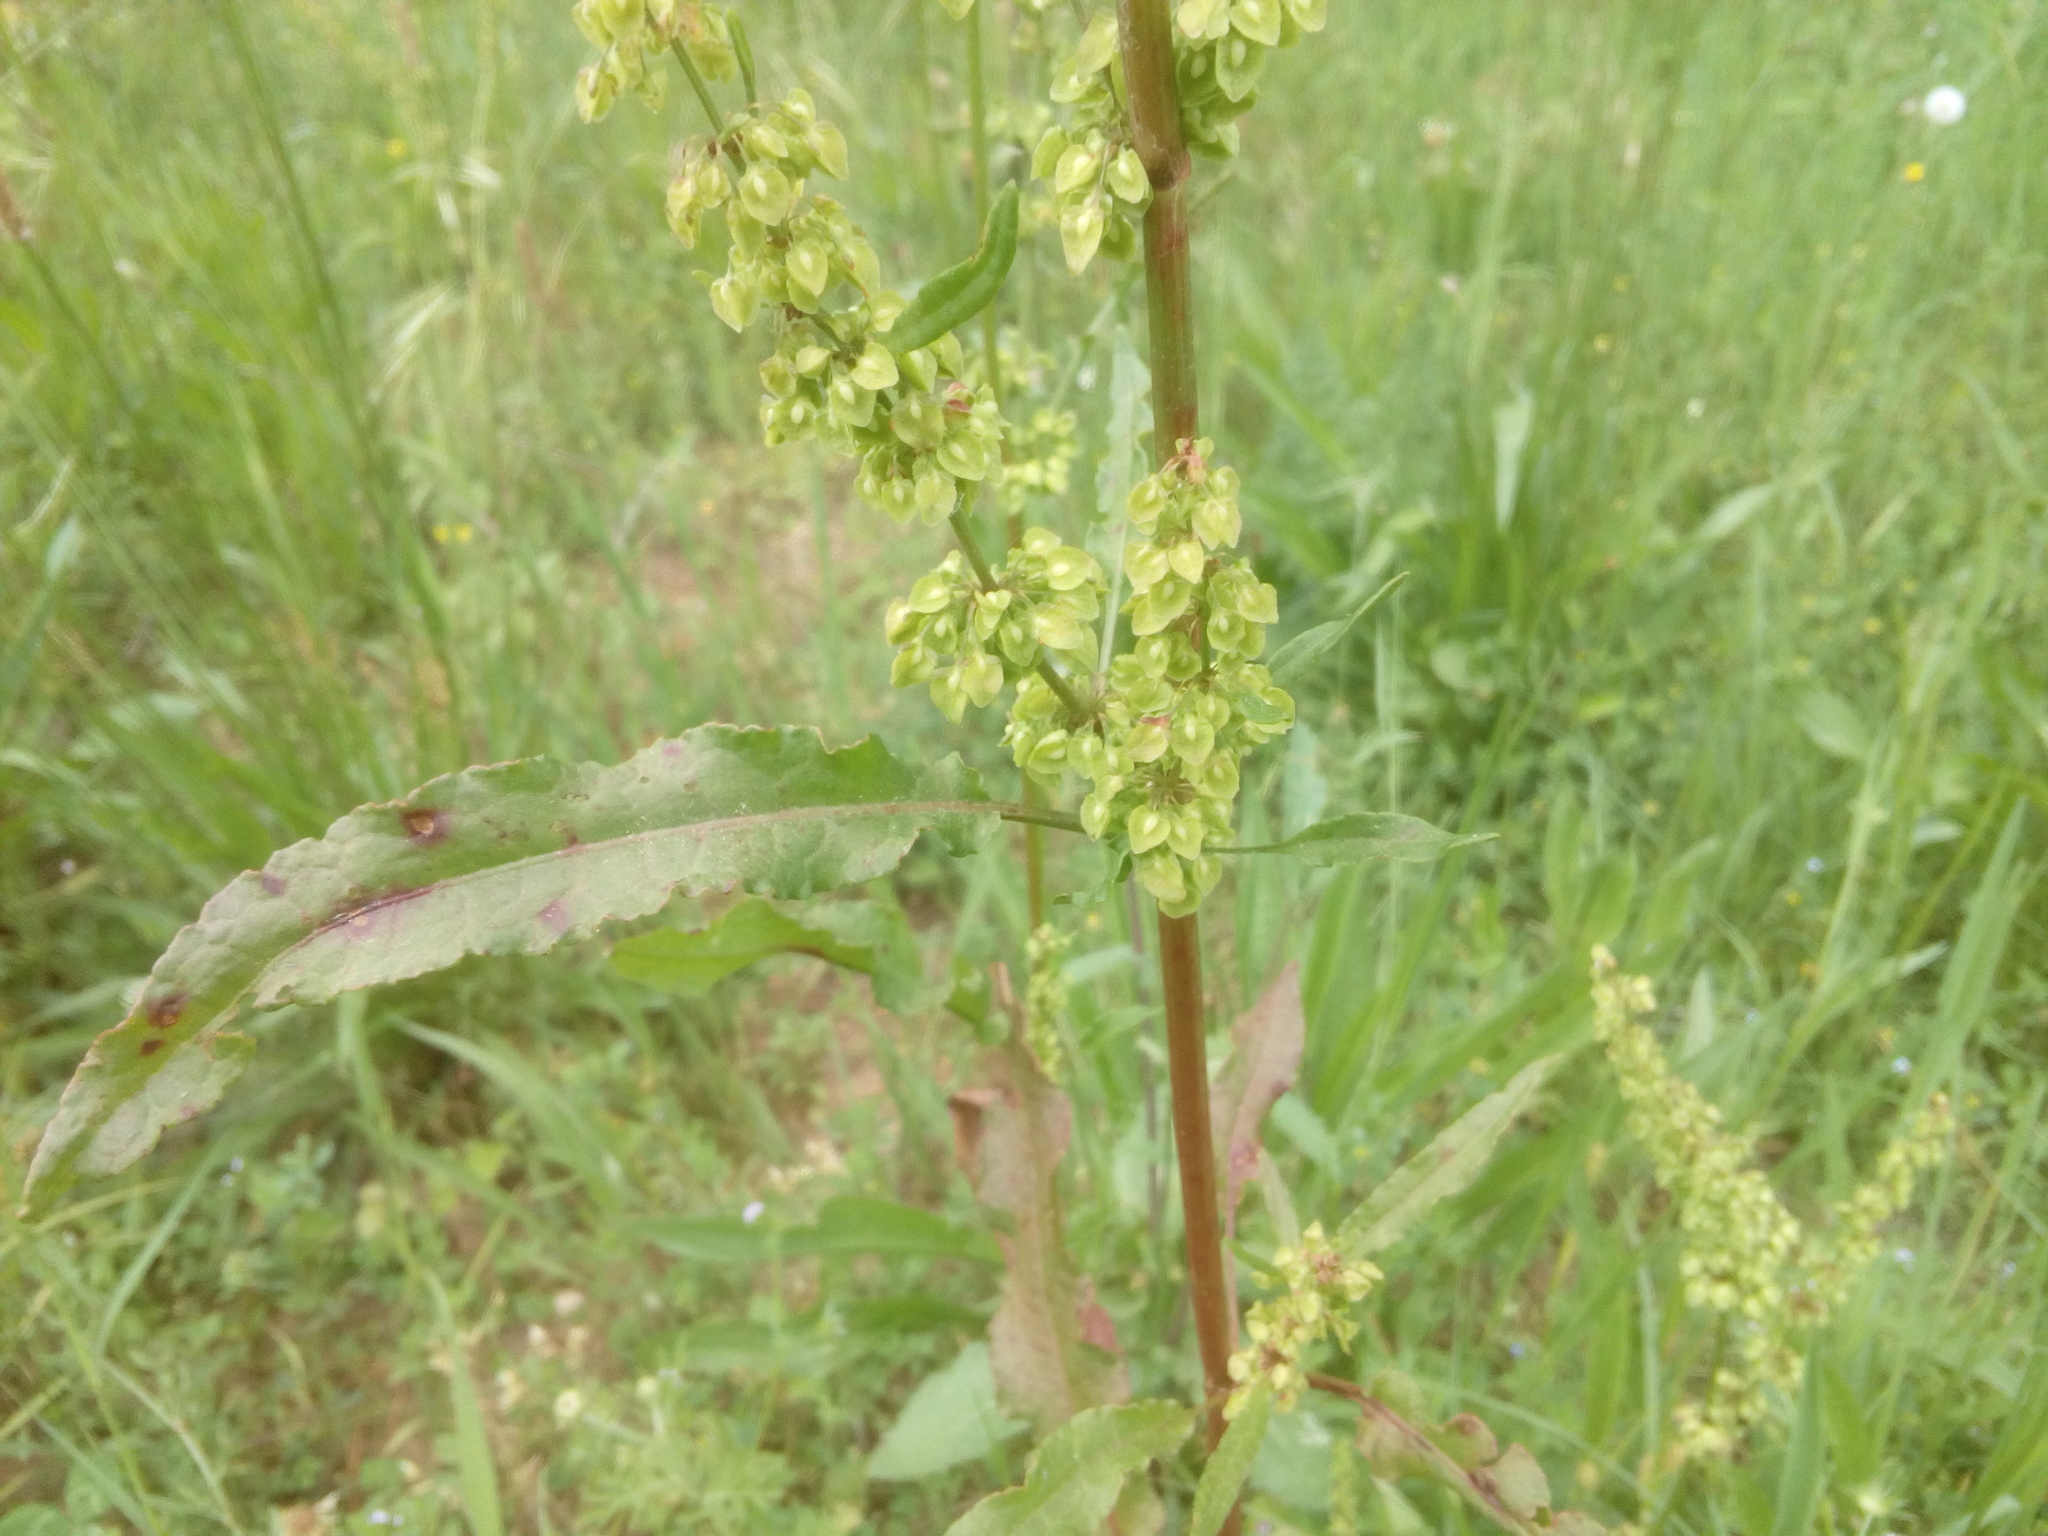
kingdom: Plantae
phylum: Tracheophyta
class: Magnoliopsida
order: Caryophyllales
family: Polygonaceae
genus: Rumex
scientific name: Rumex crispus
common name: Curled dock
